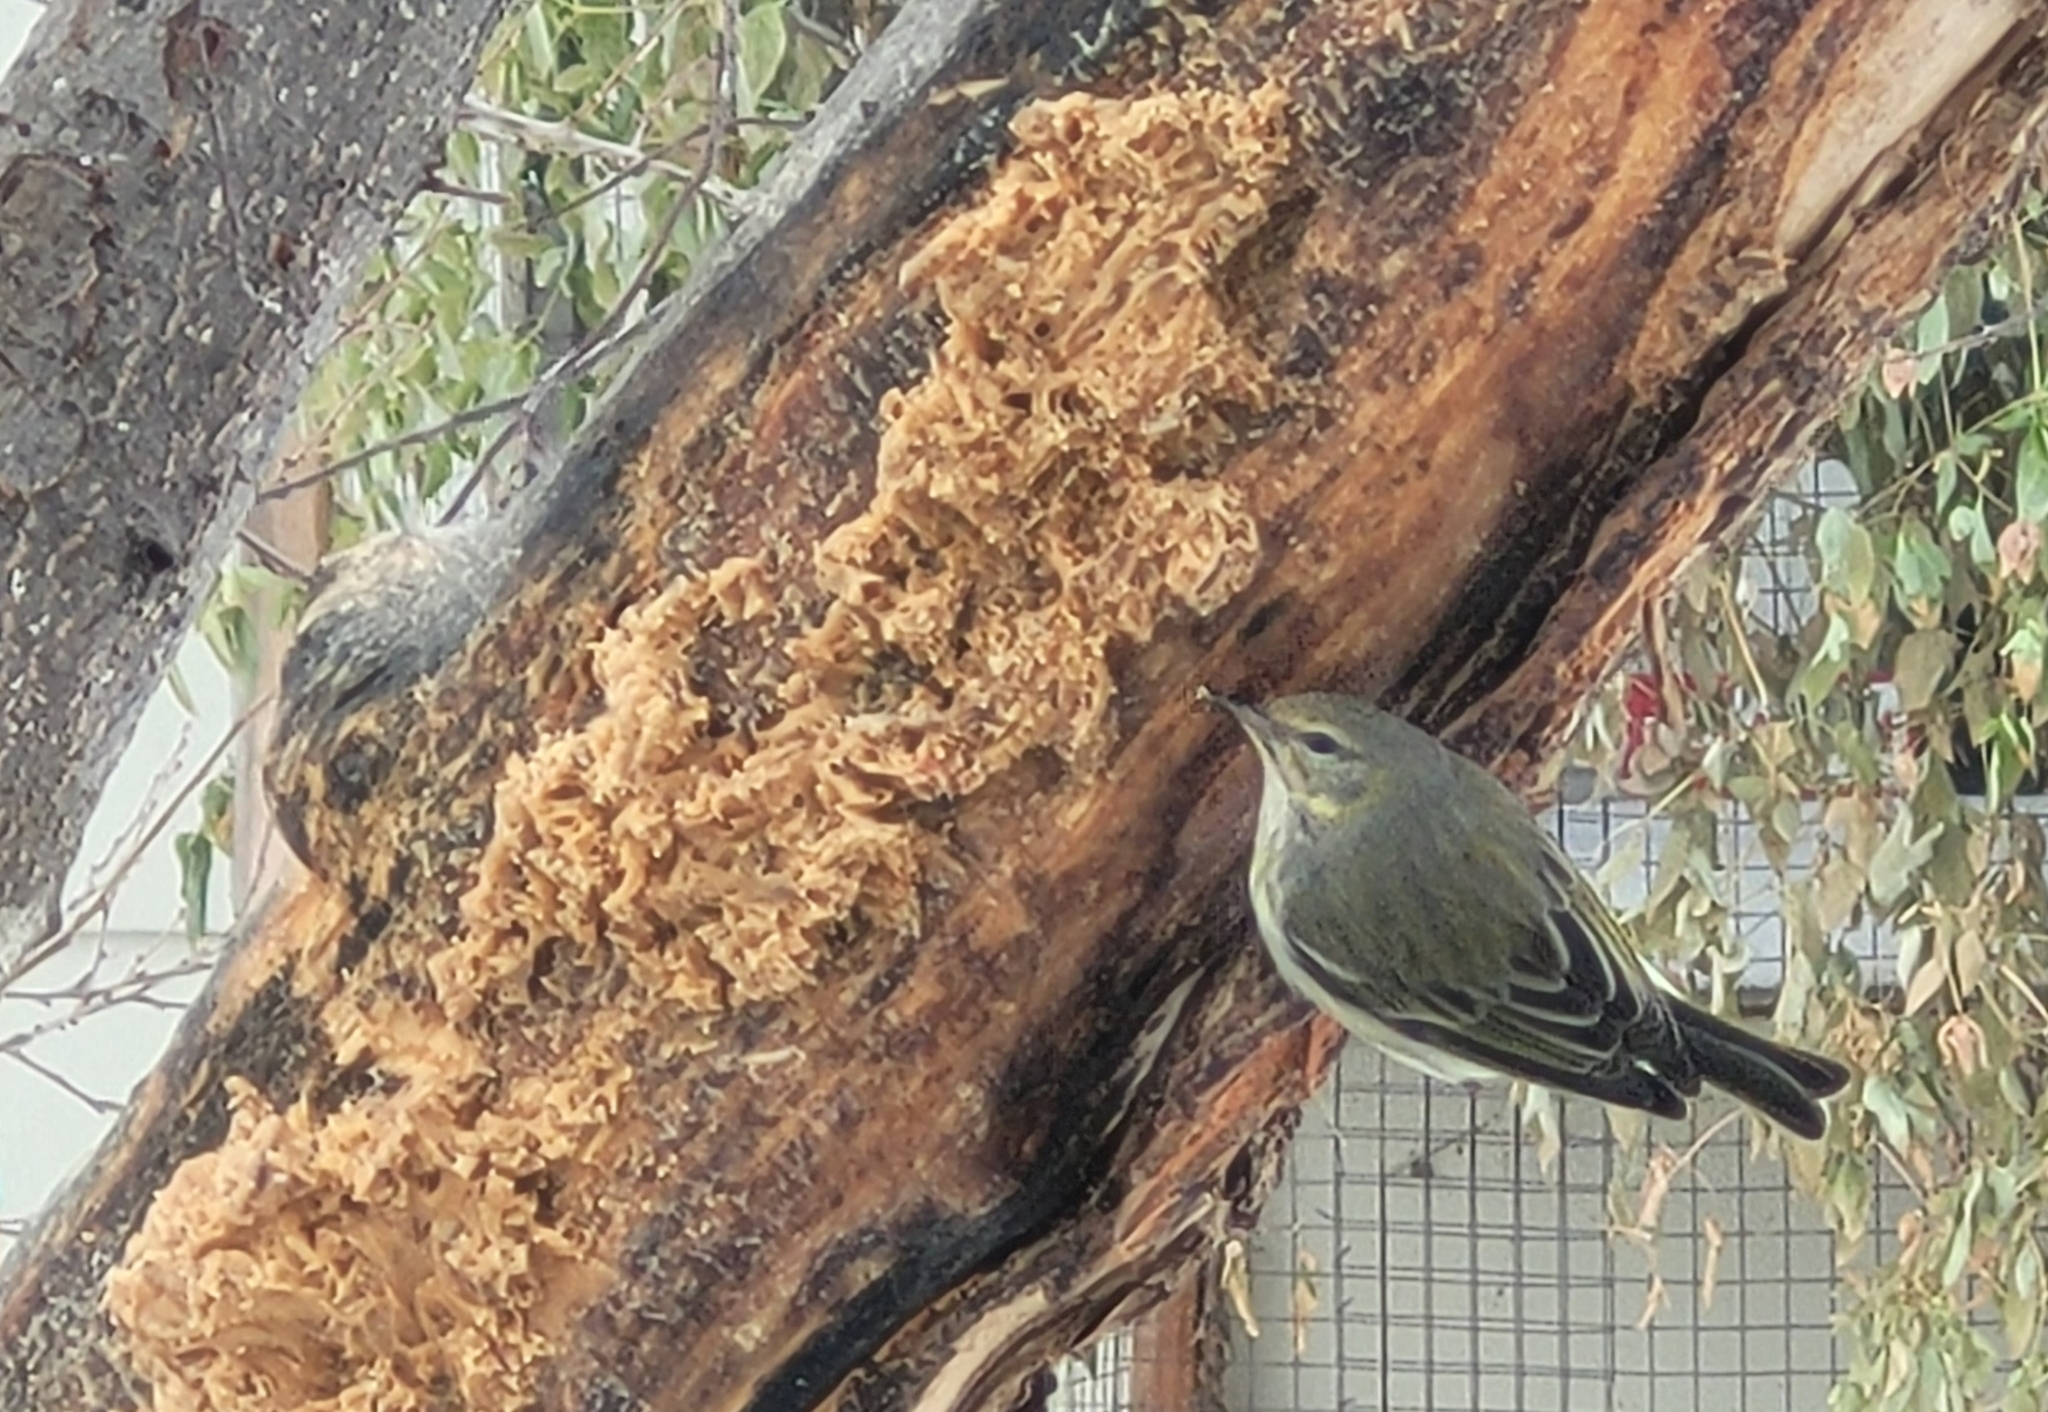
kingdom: Animalia
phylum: Chordata
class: Aves
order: Passeriformes
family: Parulidae
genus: Setophaga
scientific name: Setophaga tigrina
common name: Cape may warbler
